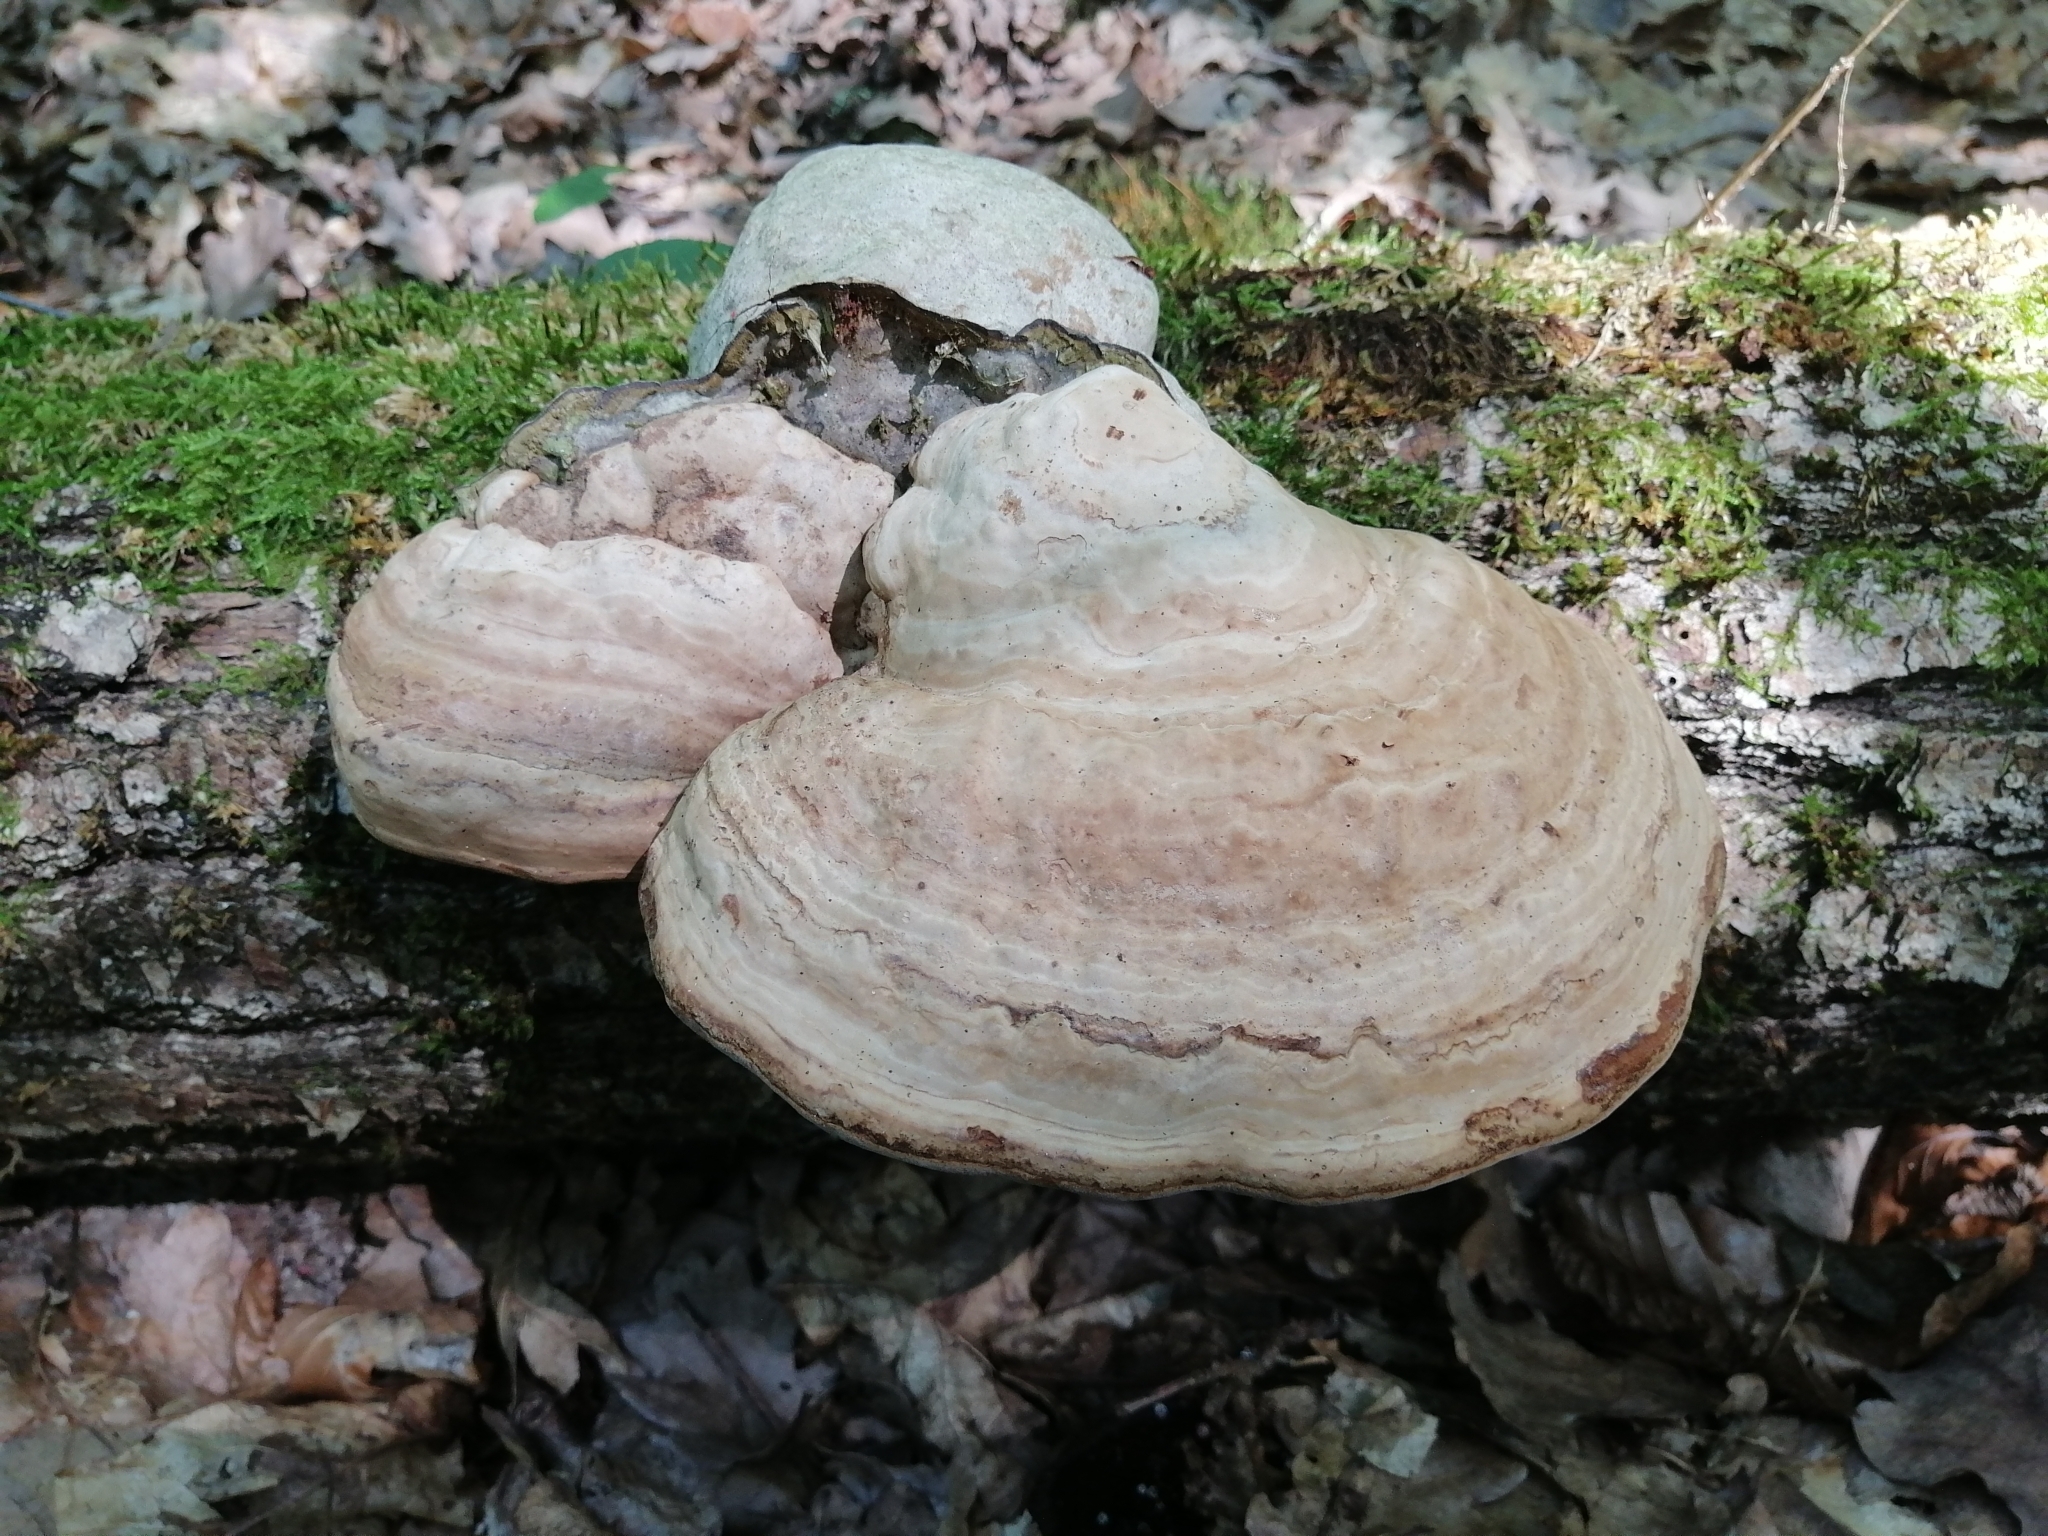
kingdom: Fungi
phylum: Basidiomycota
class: Agaricomycetes
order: Polyporales
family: Polyporaceae
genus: Fomes
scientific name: Fomes fomentarius
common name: Hoof fungus
